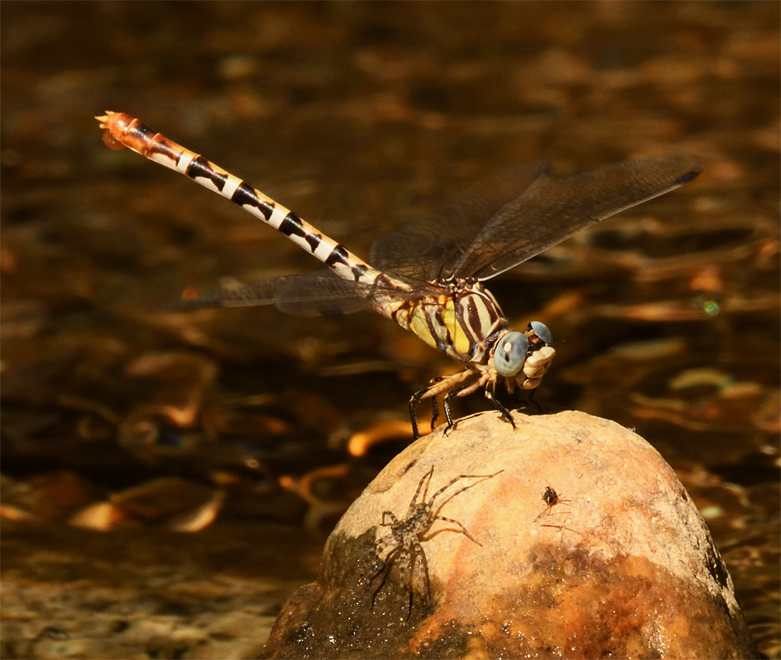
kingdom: Animalia
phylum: Arthropoda
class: Insecta
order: Odonata
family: Gomphidae
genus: Erpetogomphus
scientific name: Erpetogomphus compositus
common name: White-belted ringtail
